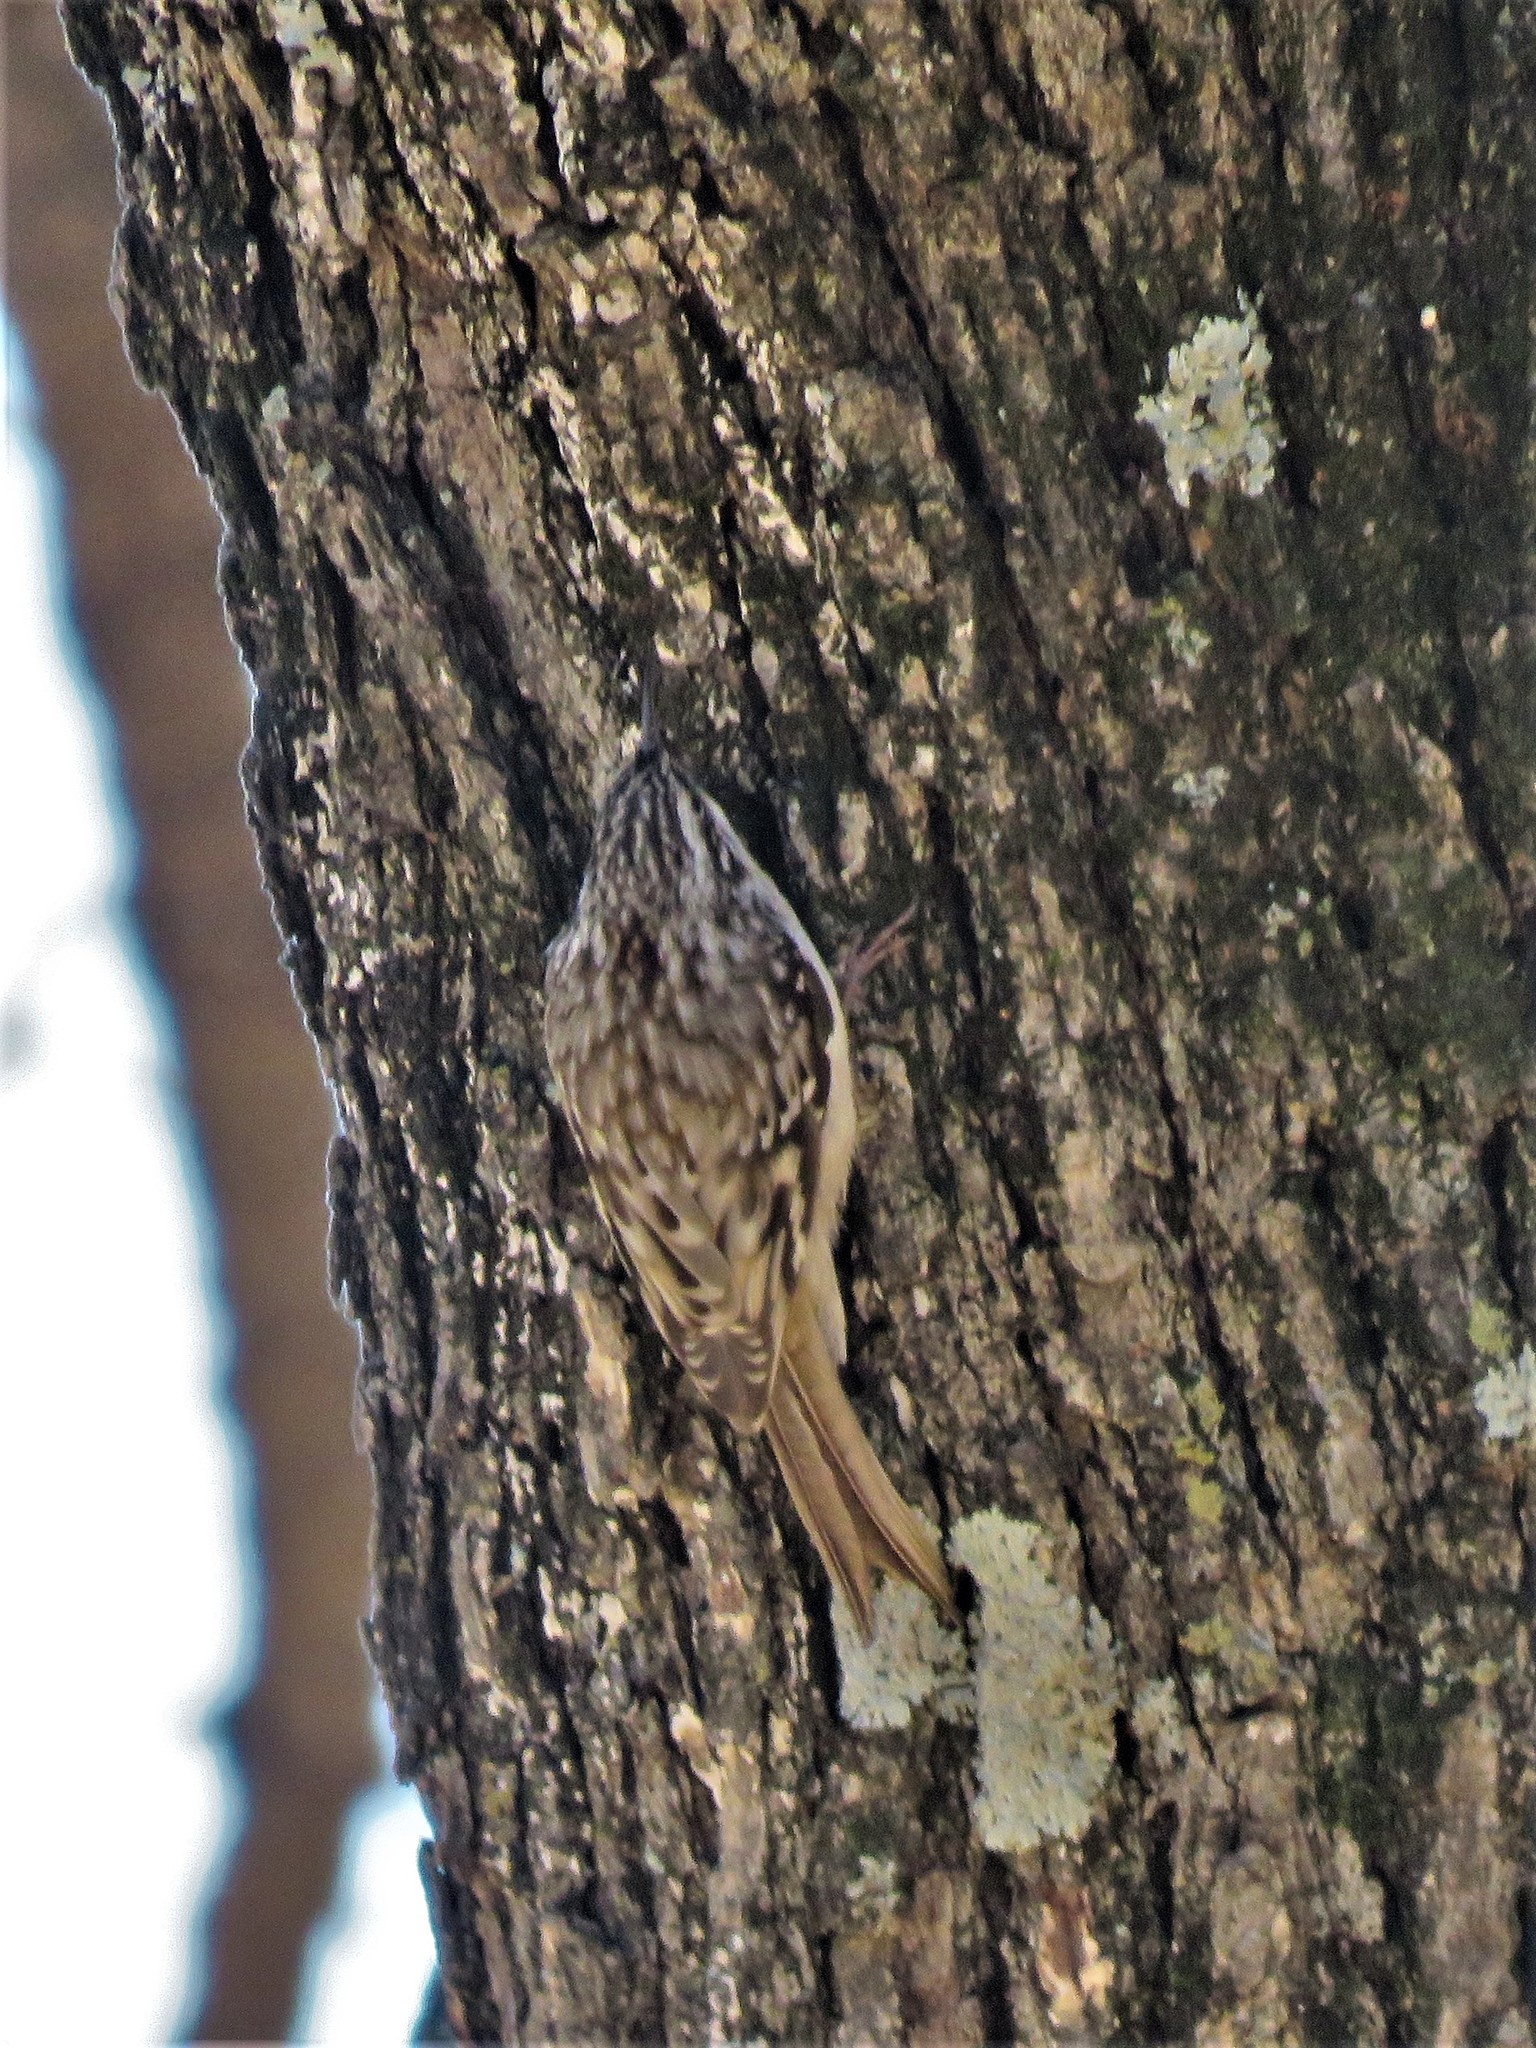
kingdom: Animalia
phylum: Chordata
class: Aves
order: Passeriformes
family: Certhiidae
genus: Certhia
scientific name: Certhia americana
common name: Brown creeper
